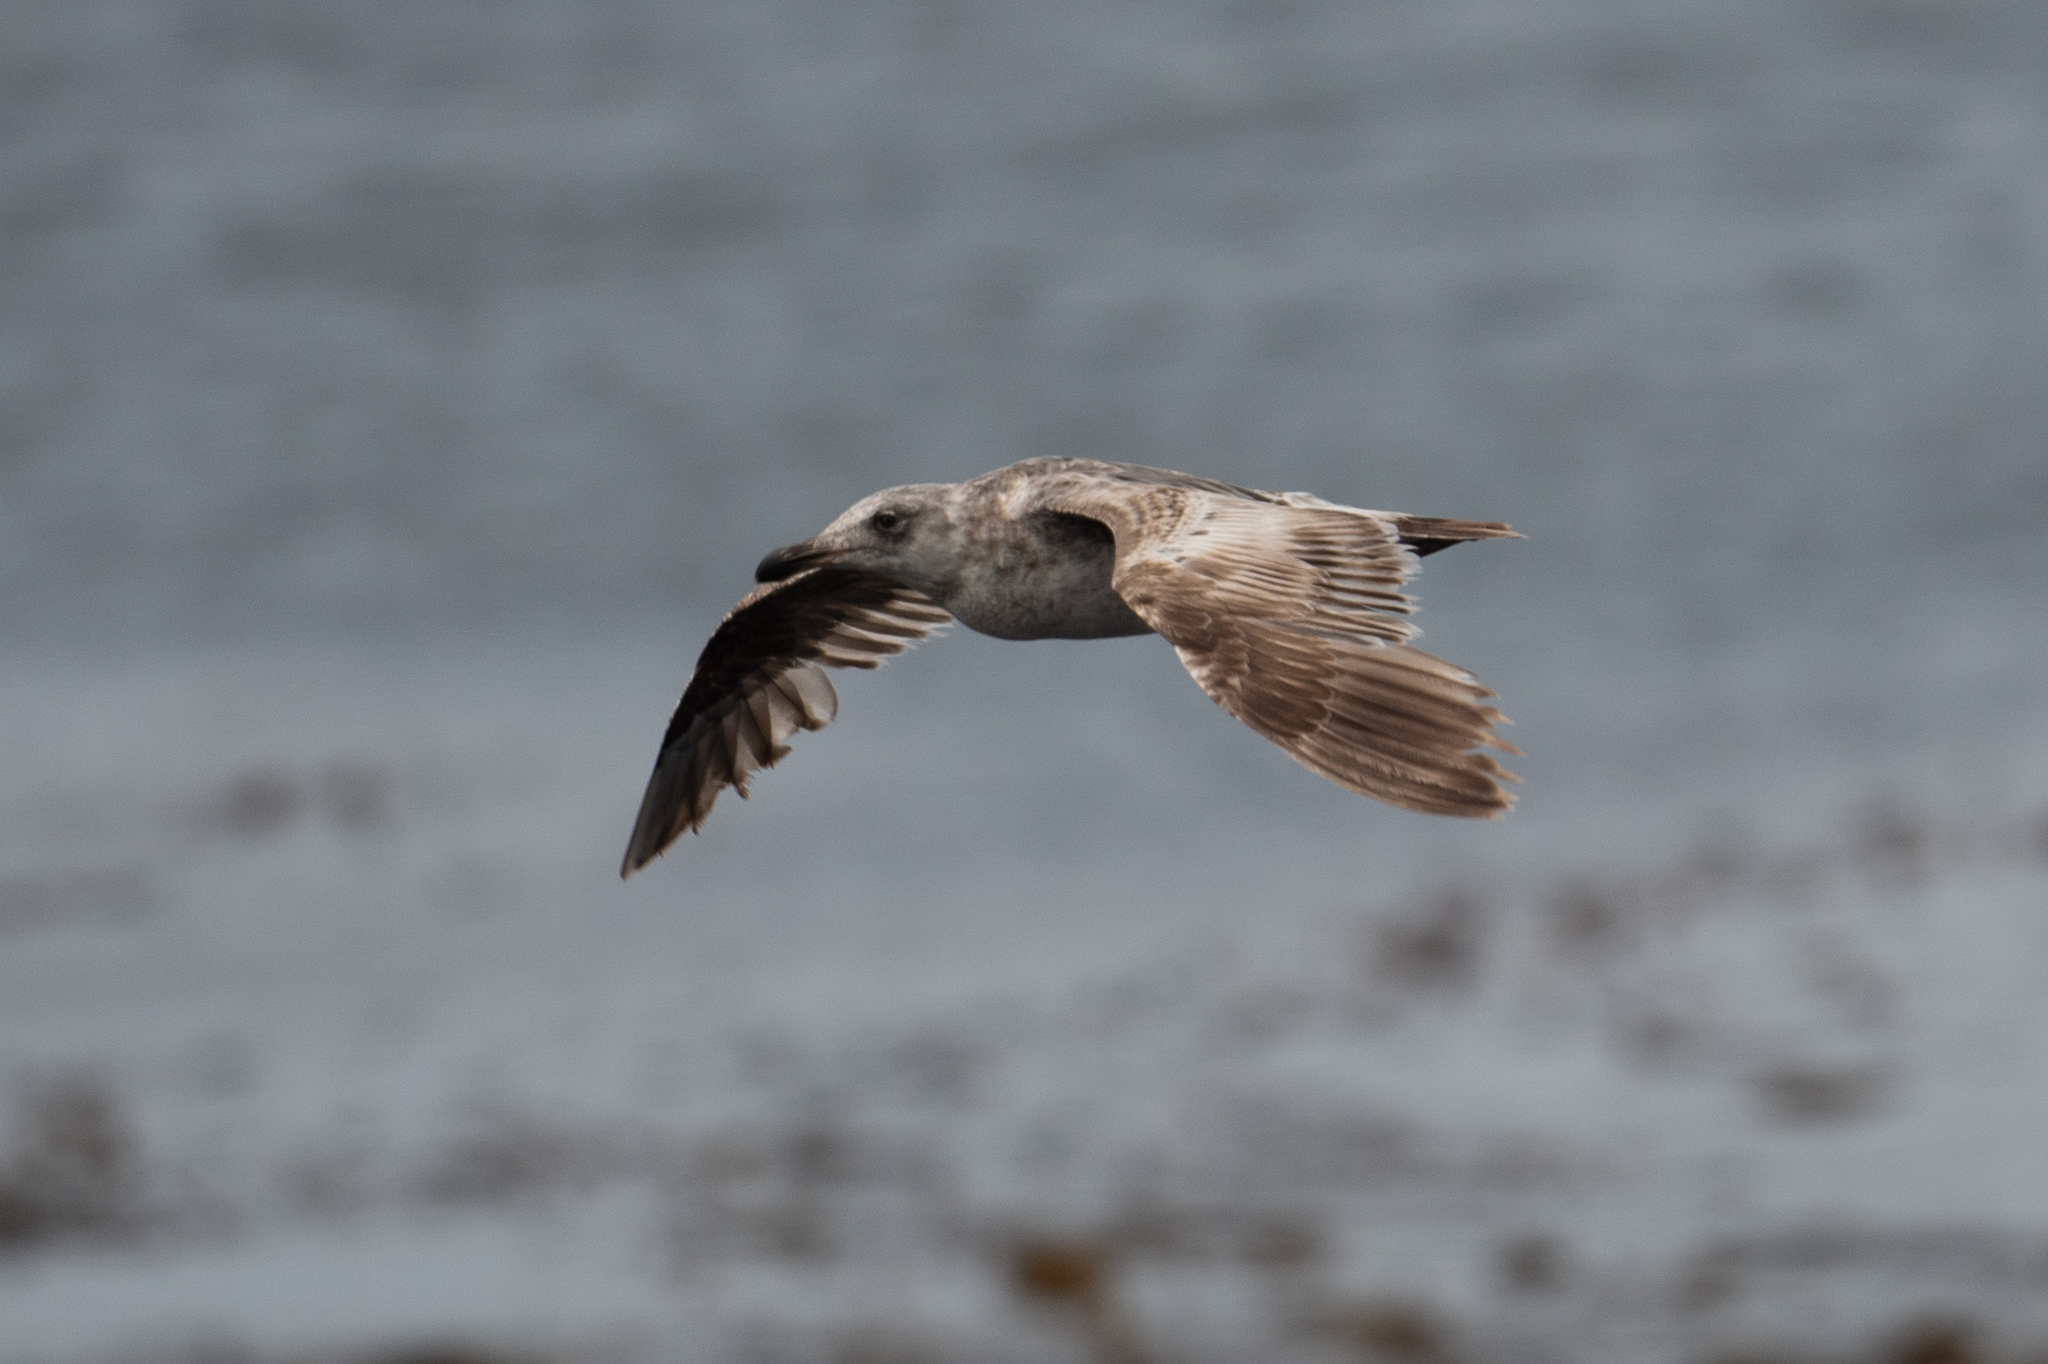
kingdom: Animalia
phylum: Chordata
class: Aves
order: Charadriiformes
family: Laridae
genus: Larus
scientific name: Larus occidentalis
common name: Western gull
